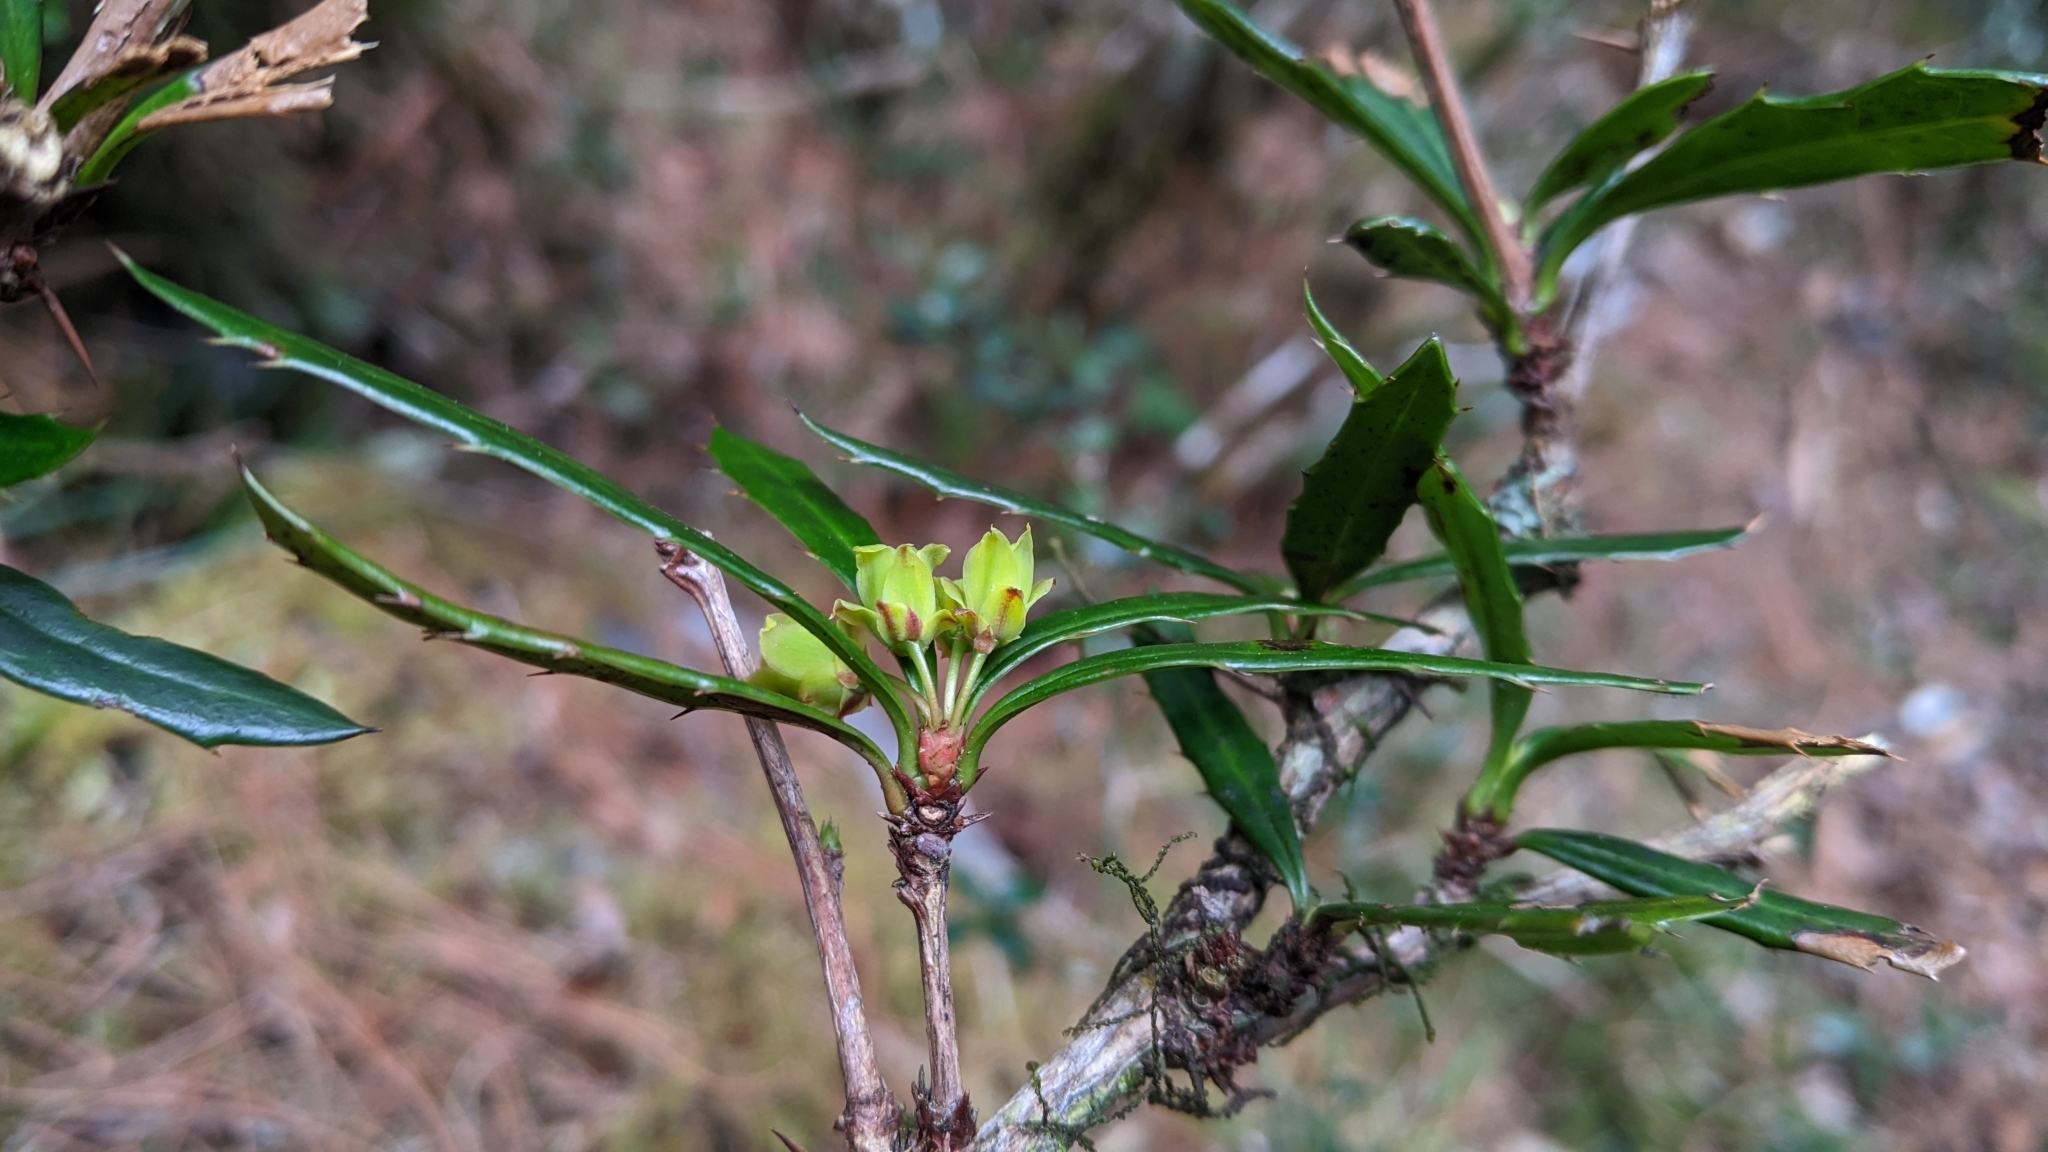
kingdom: Plantae
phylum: Tracheophyta
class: Magnoliopsida
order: Ranunculales
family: Berberidaceae
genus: Berberis
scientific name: Berberis kawakamii
